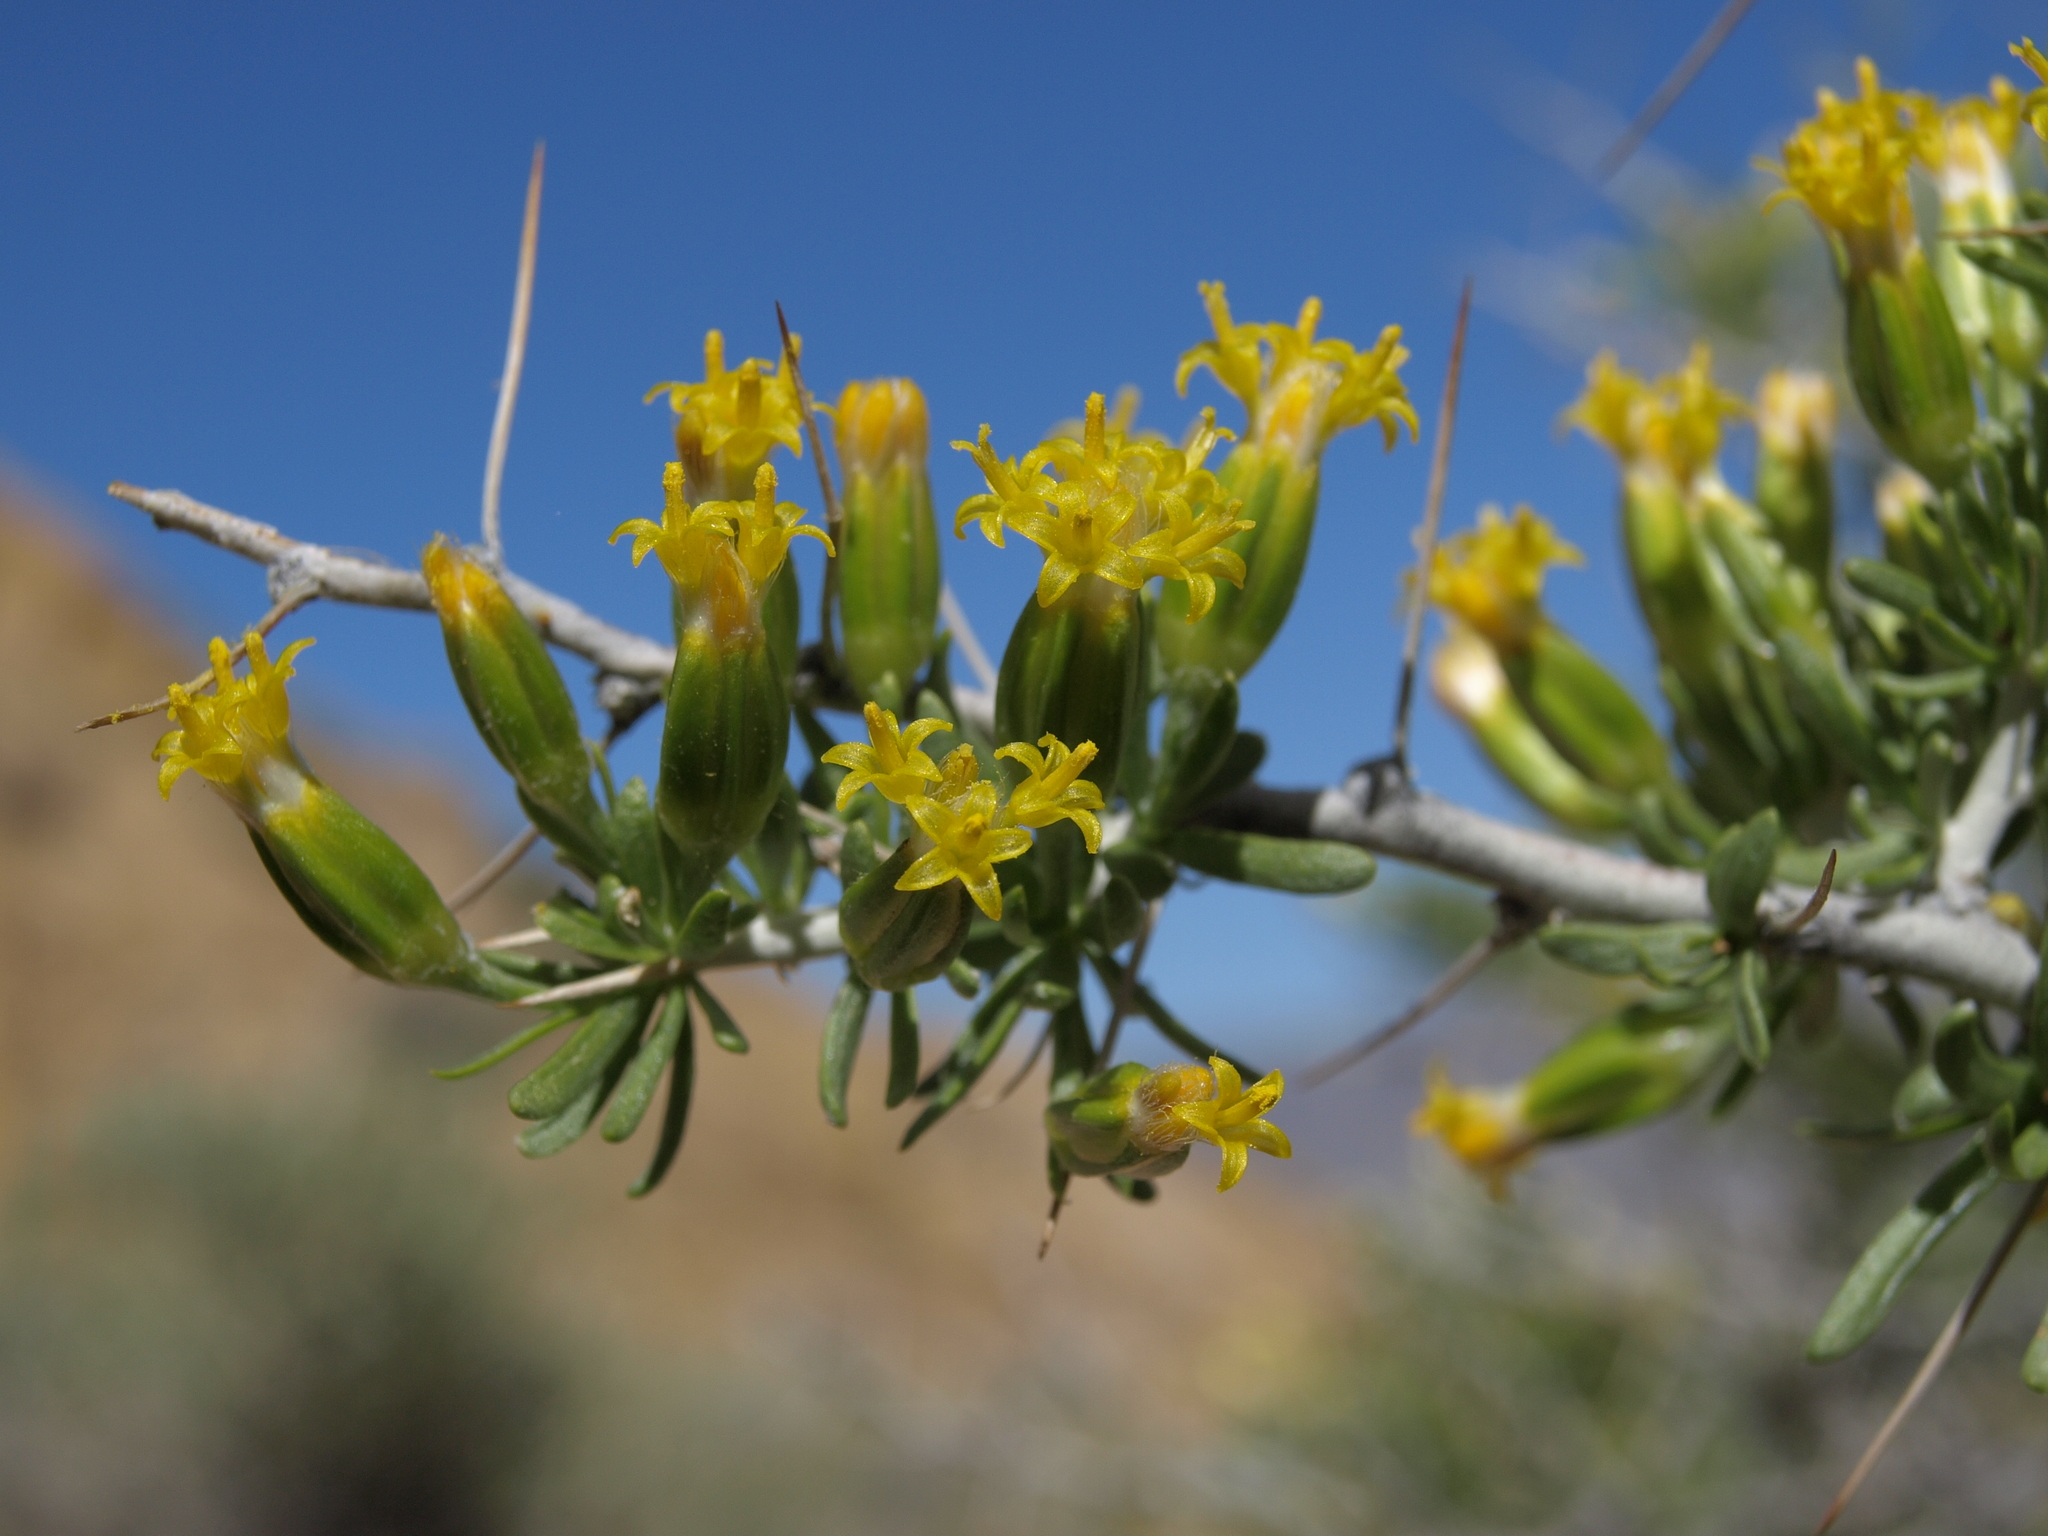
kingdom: Plantae
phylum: Tracheophyta
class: Magnoliopsida
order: Asterales
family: Asteraceae
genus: Tetradymia
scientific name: Tetradymia axillaris
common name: Long-spine horsebrush
